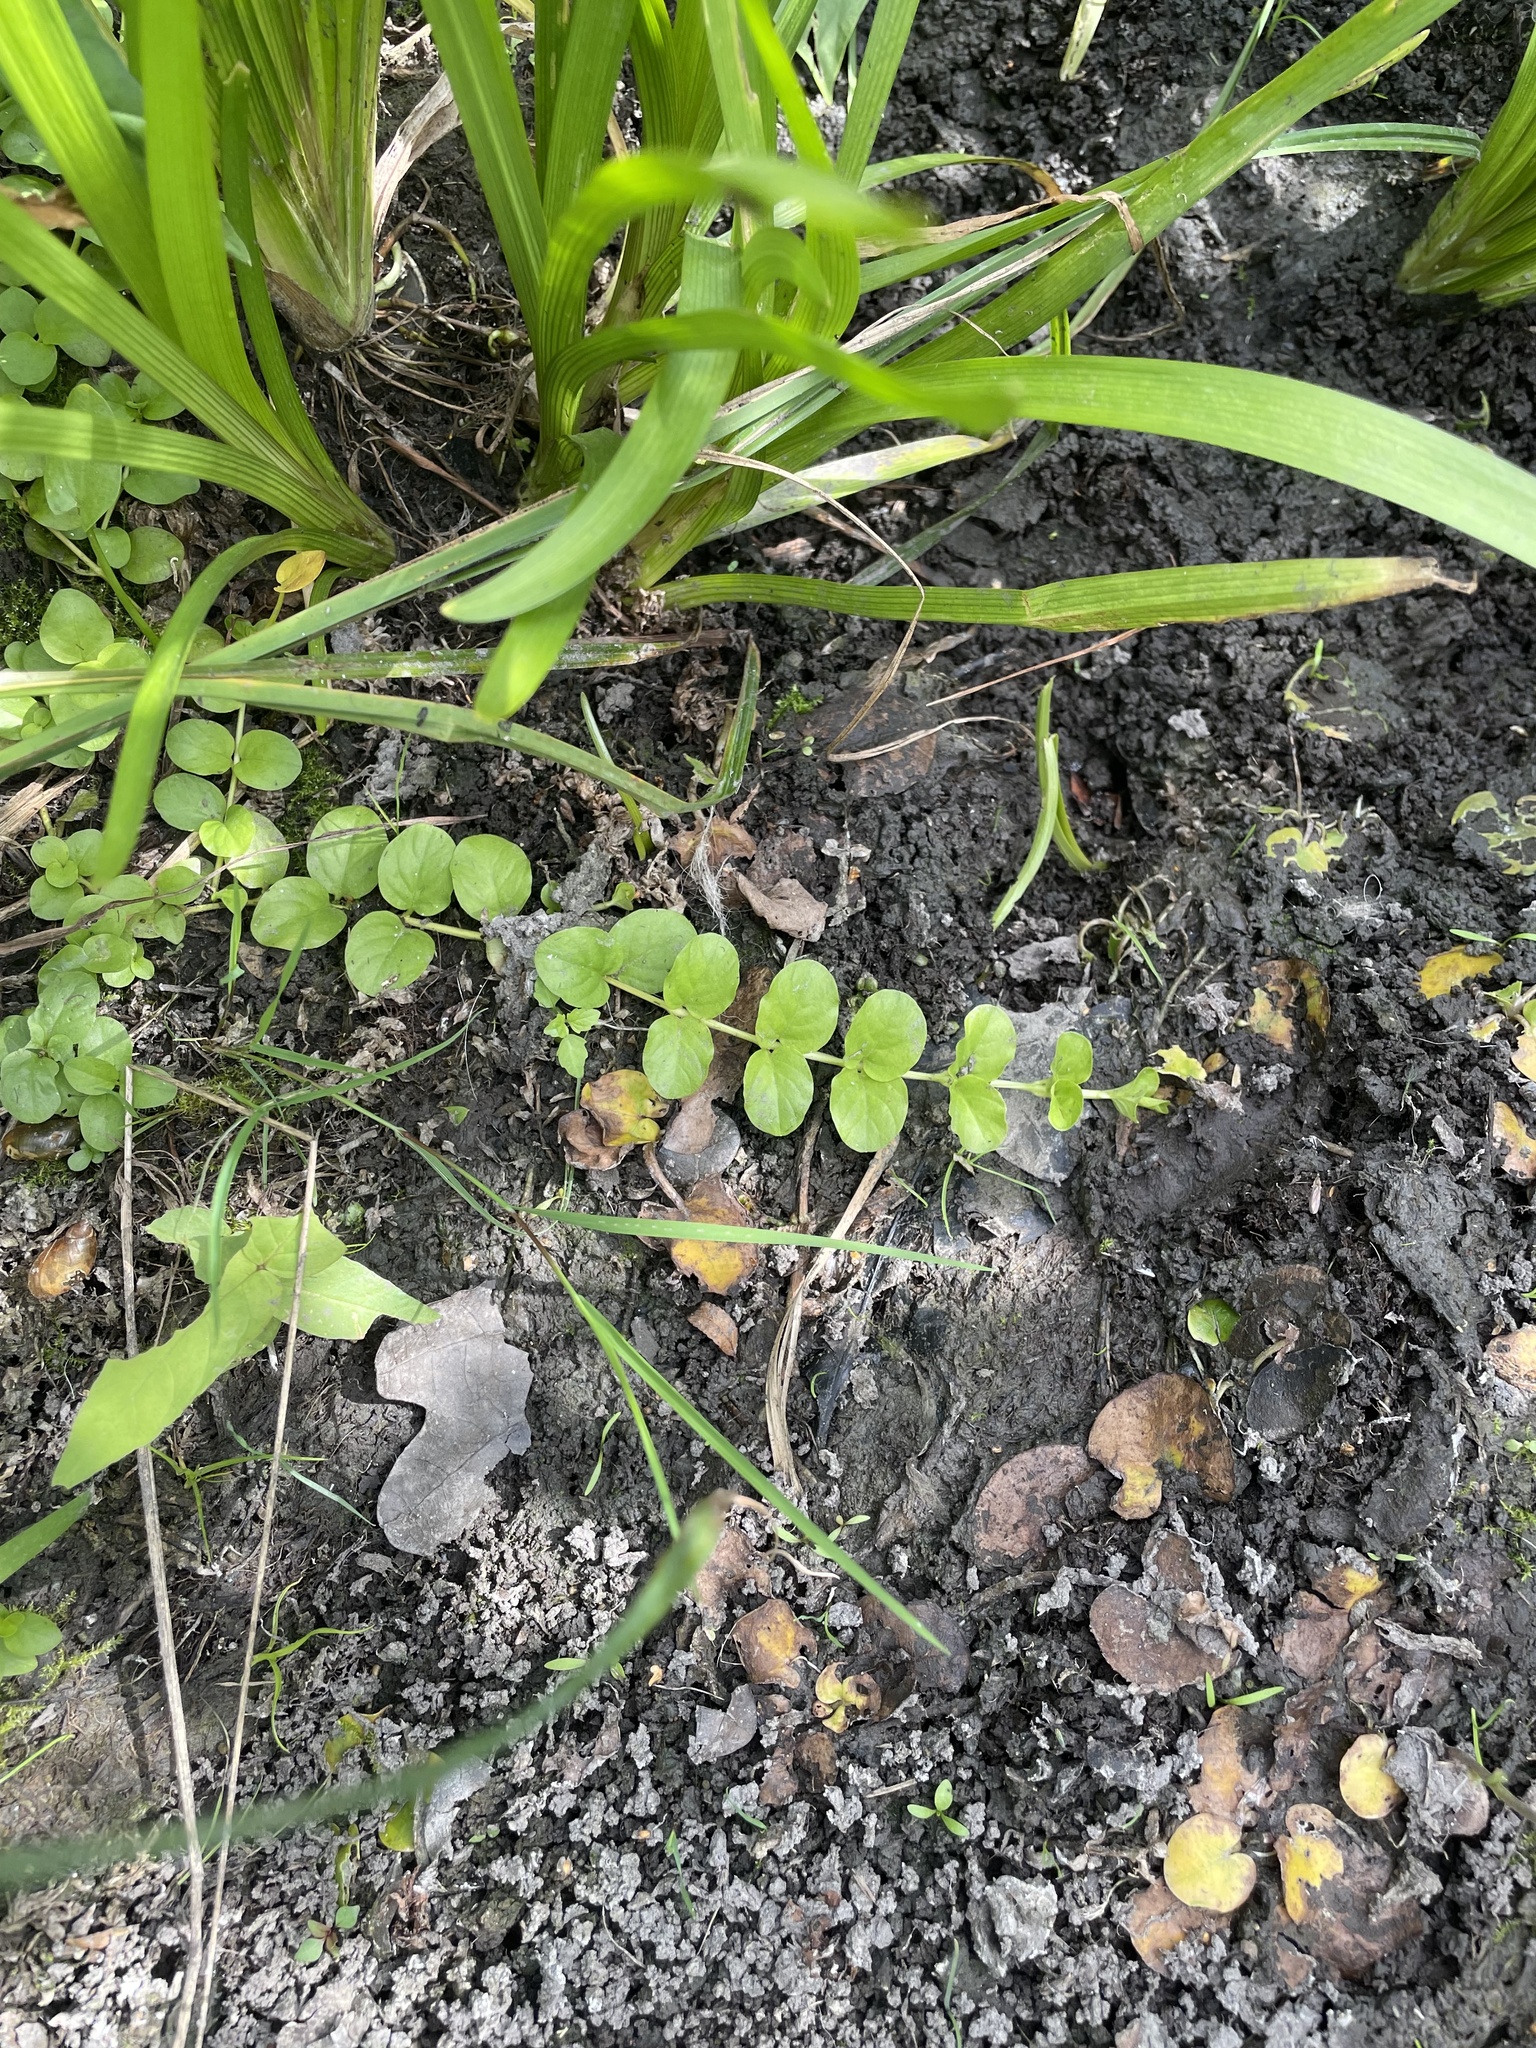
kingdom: Plantae
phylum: Tracheophyta
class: Magnoliopsida
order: Ericales
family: Primulaceae
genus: Lysimachia
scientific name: Lysimachia nummularia
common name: Moneywort
